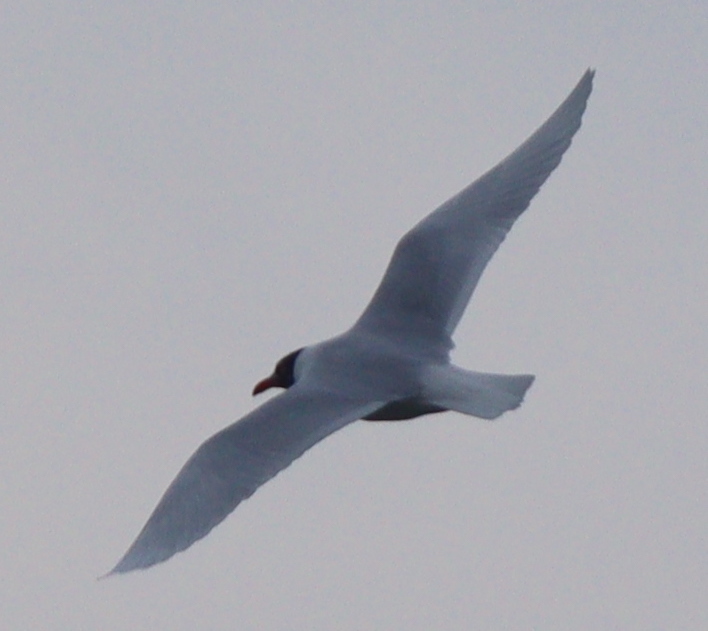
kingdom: Animalia
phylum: Chordata
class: Aves
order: Charadriiformes
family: Laridae
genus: Ichthyaetus
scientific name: Ichthyaetus melanocephalus
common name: Mediterranean gull
